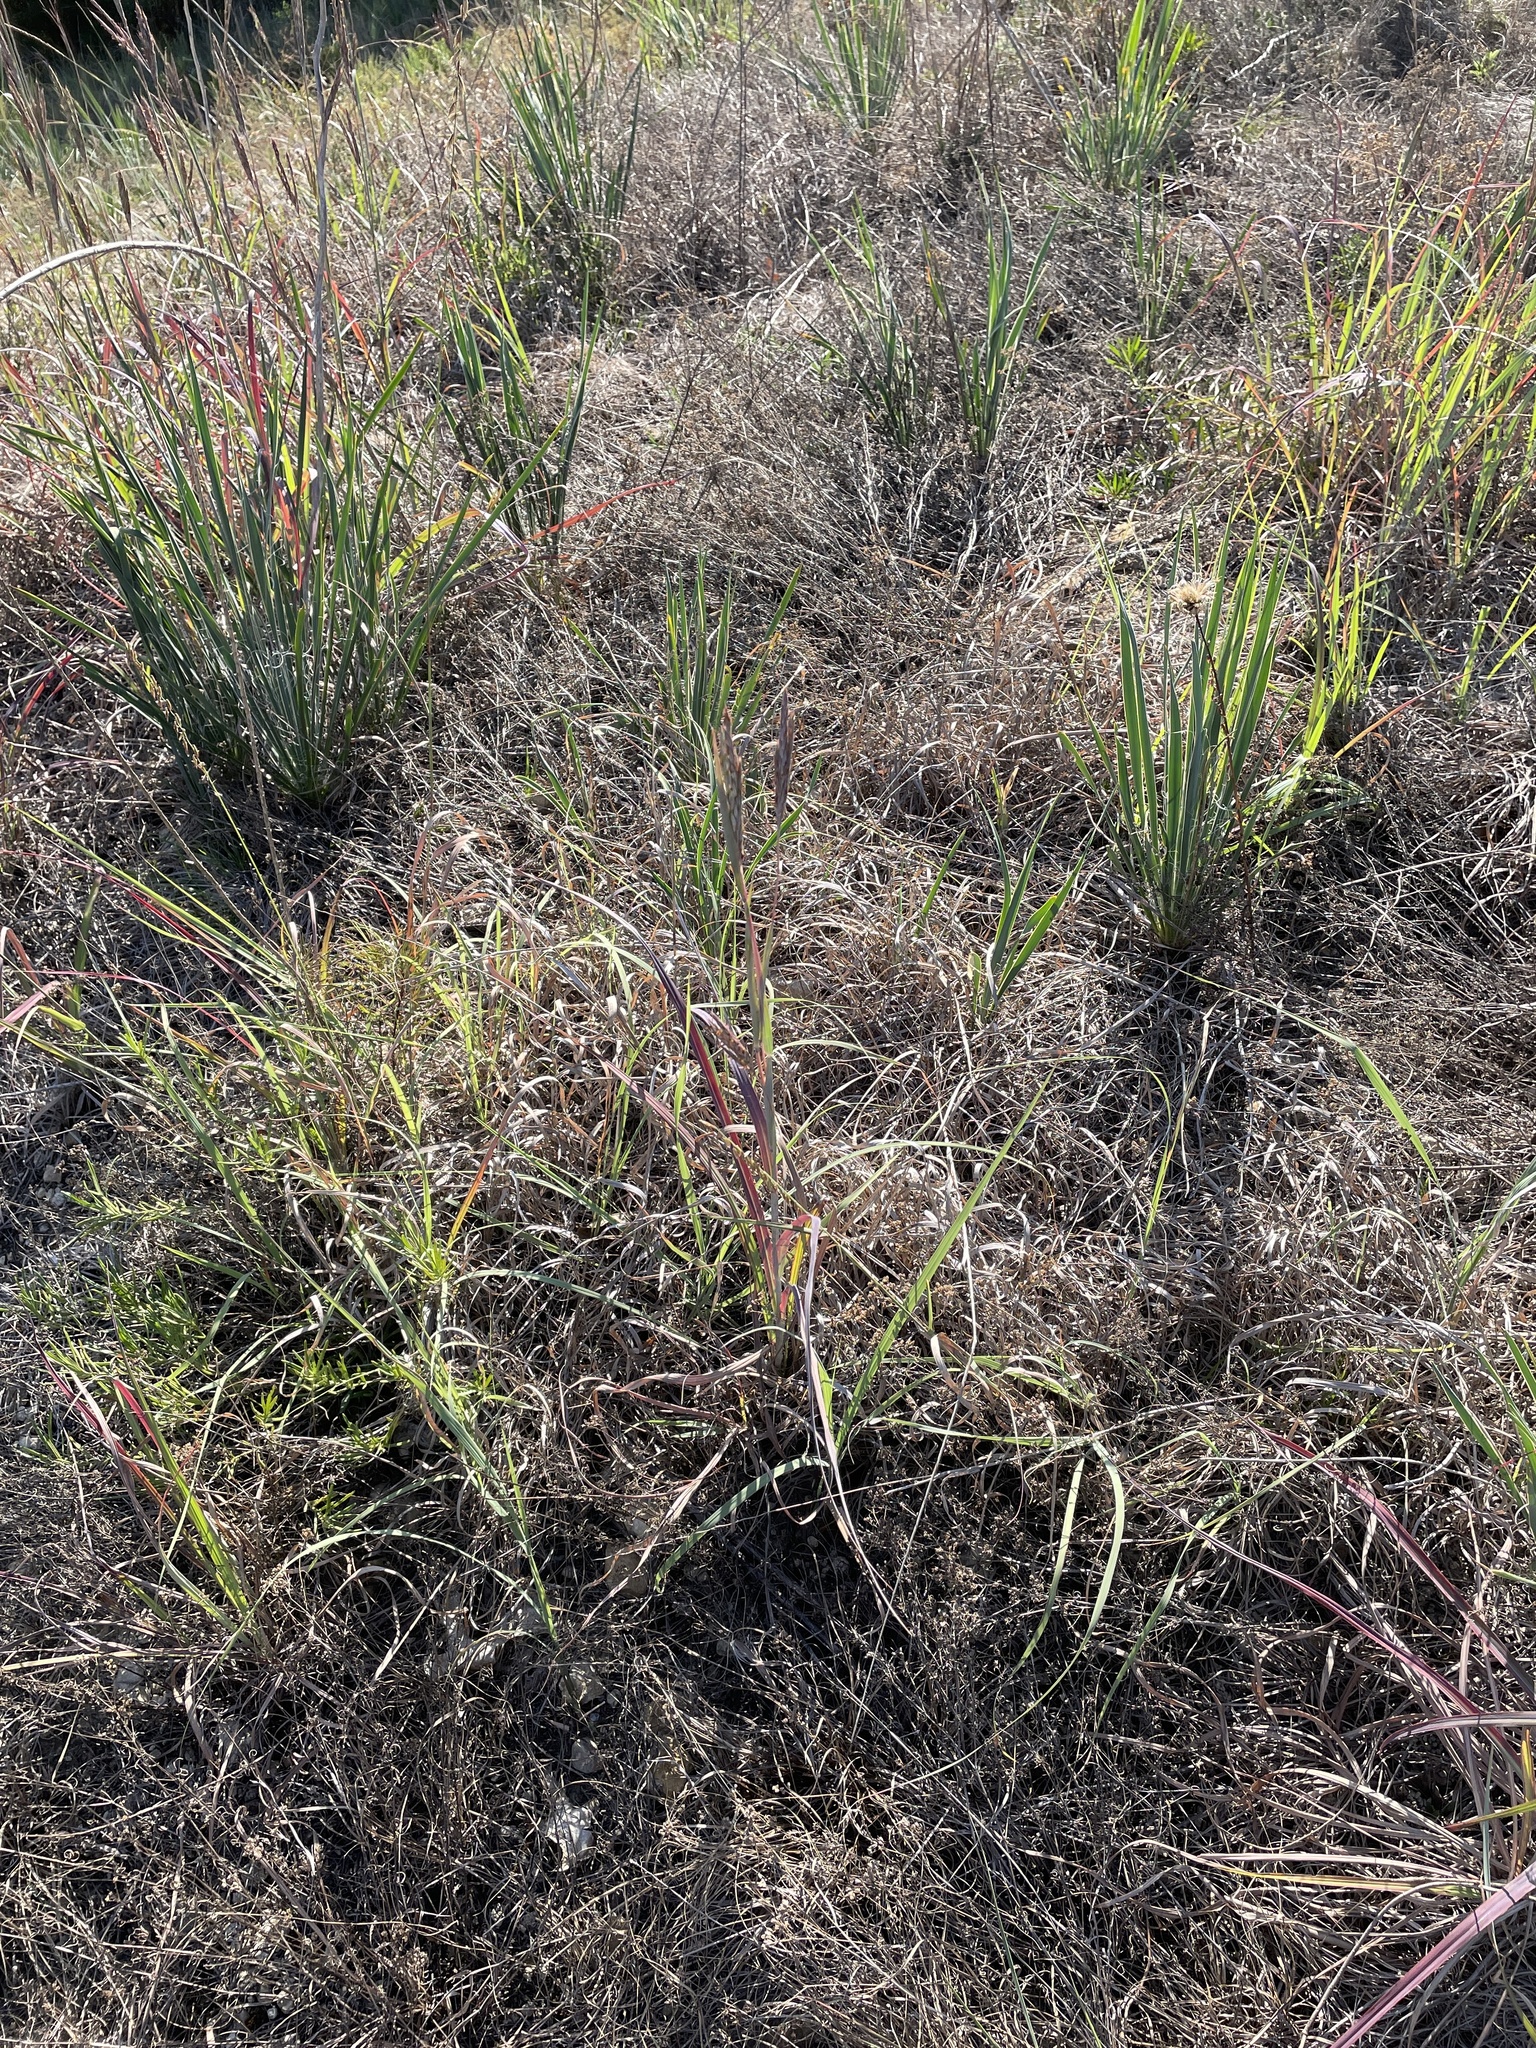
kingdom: Plantae
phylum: Tracheophyta
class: Liliopsida
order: Poales
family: Poaceae
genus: Andropogon
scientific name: Andropogon gerardi
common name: Big bluestem
